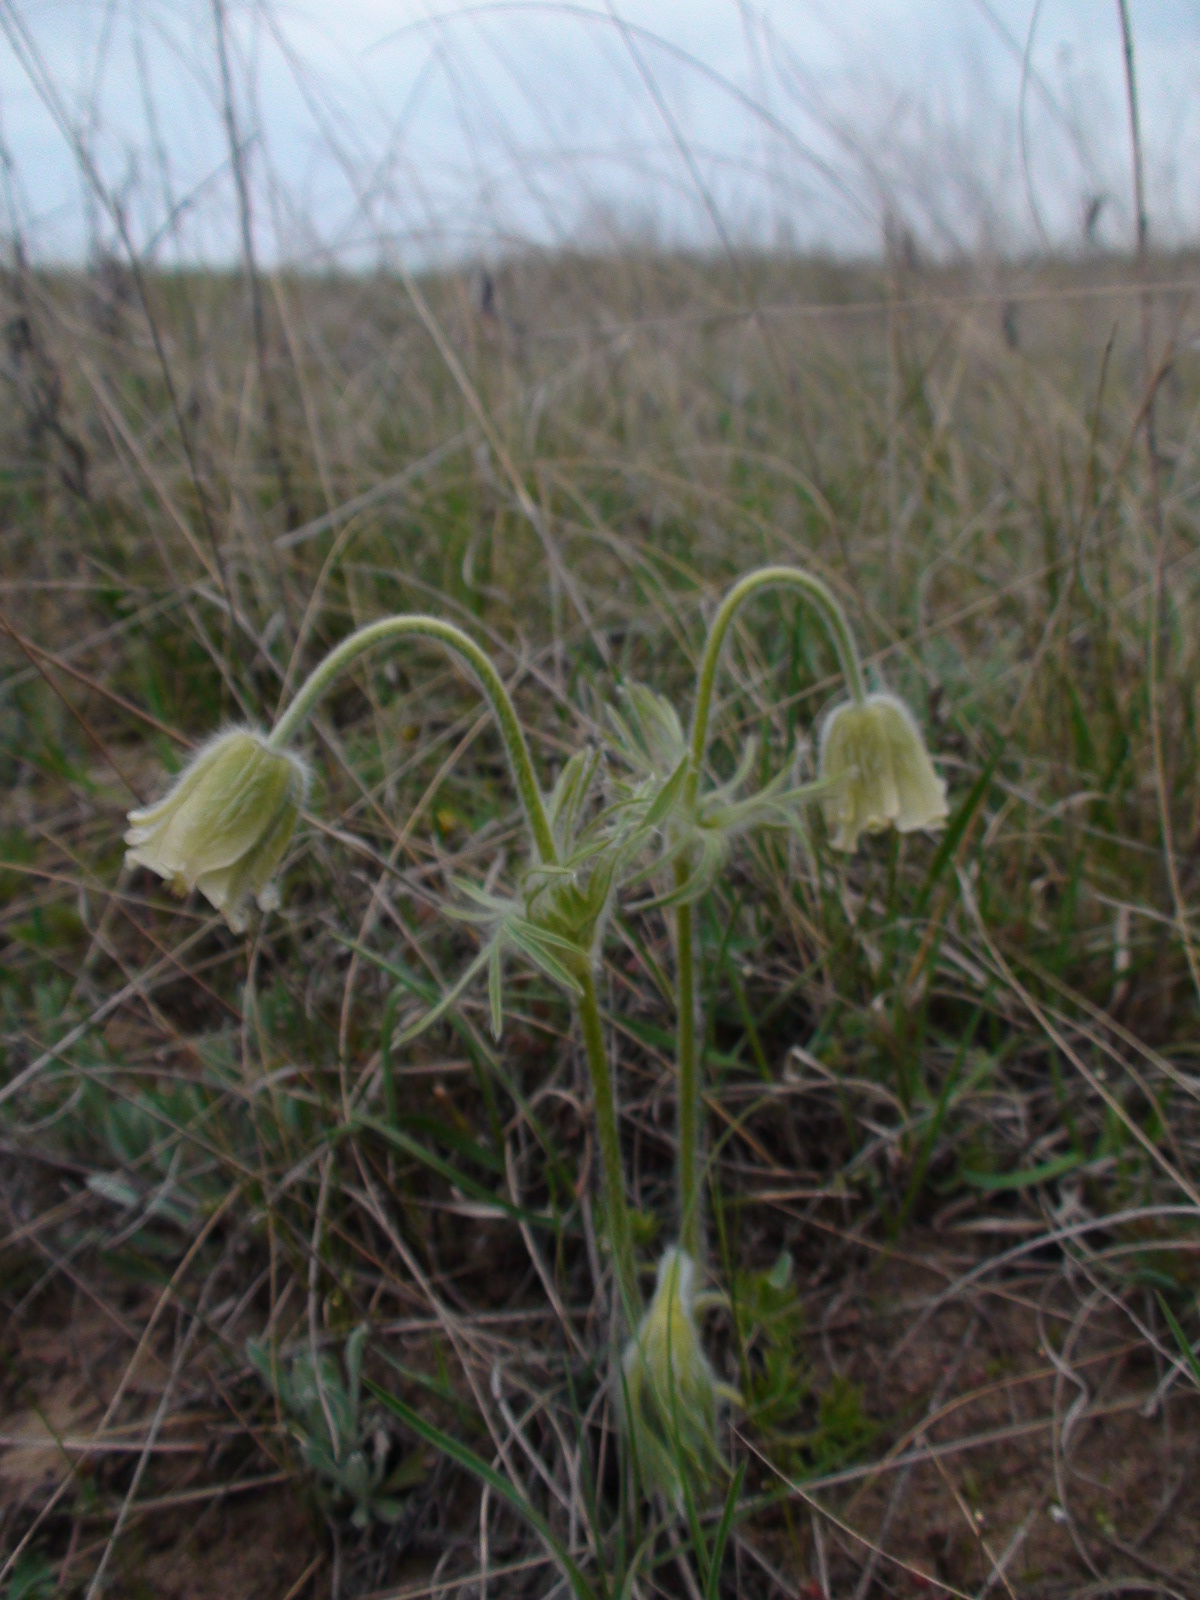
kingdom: Plantae
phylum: Tracheophyta
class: Magnoliopsida
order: Ranunculales
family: Ranunculaceae
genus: Pulsatilla
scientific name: Pulsatilla pratensis
